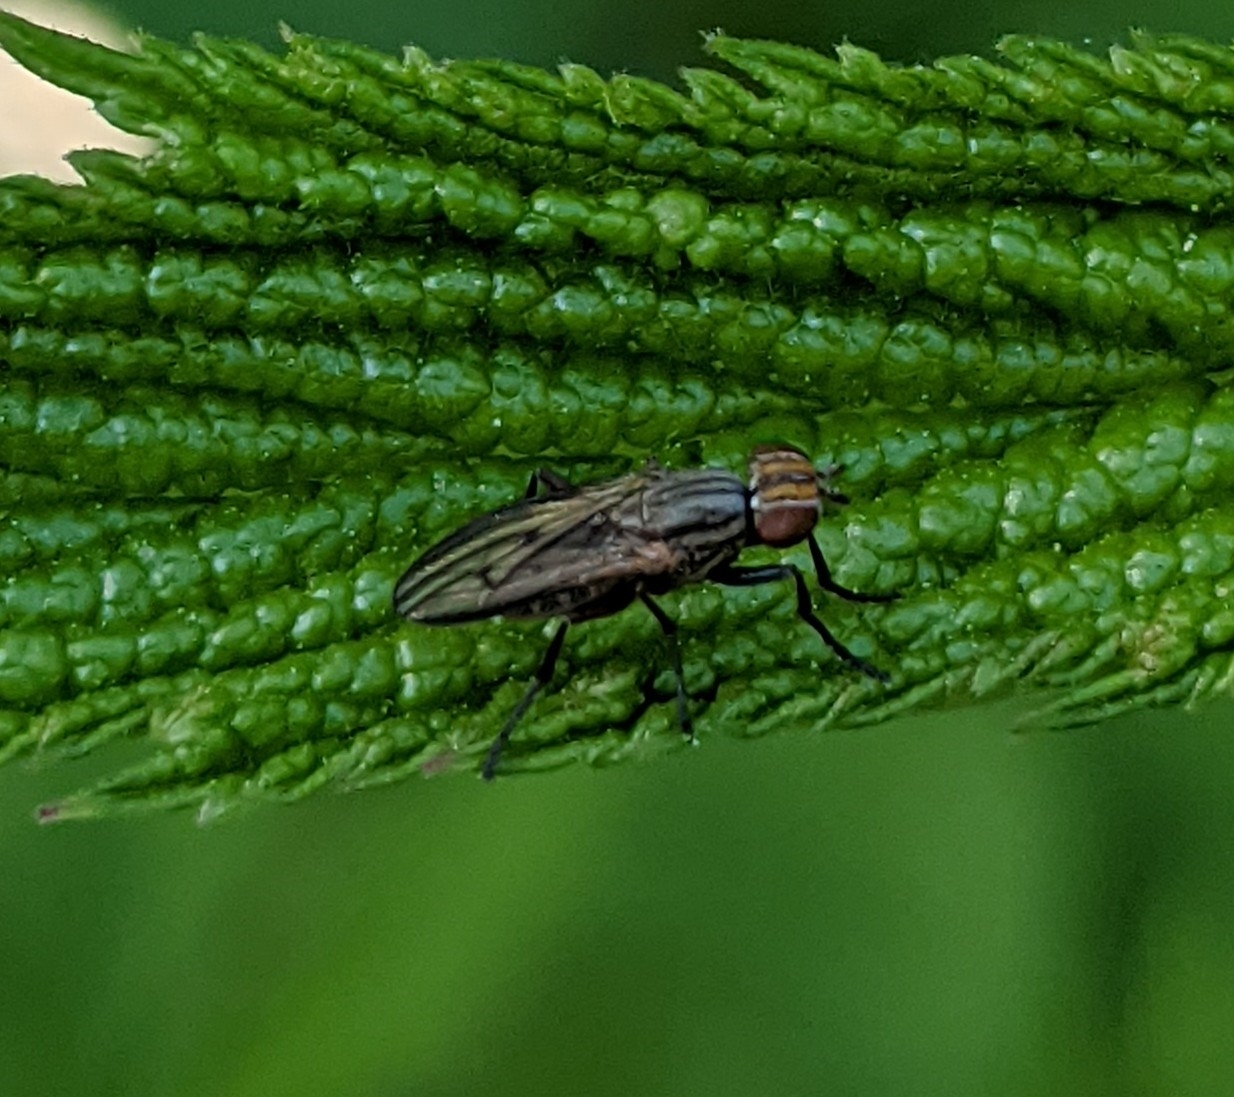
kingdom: Animalia
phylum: Arthropoda
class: Insecta
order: Diptera
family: Sciomyzidae
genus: Pherbellia
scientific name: Pherbellia cinerella
